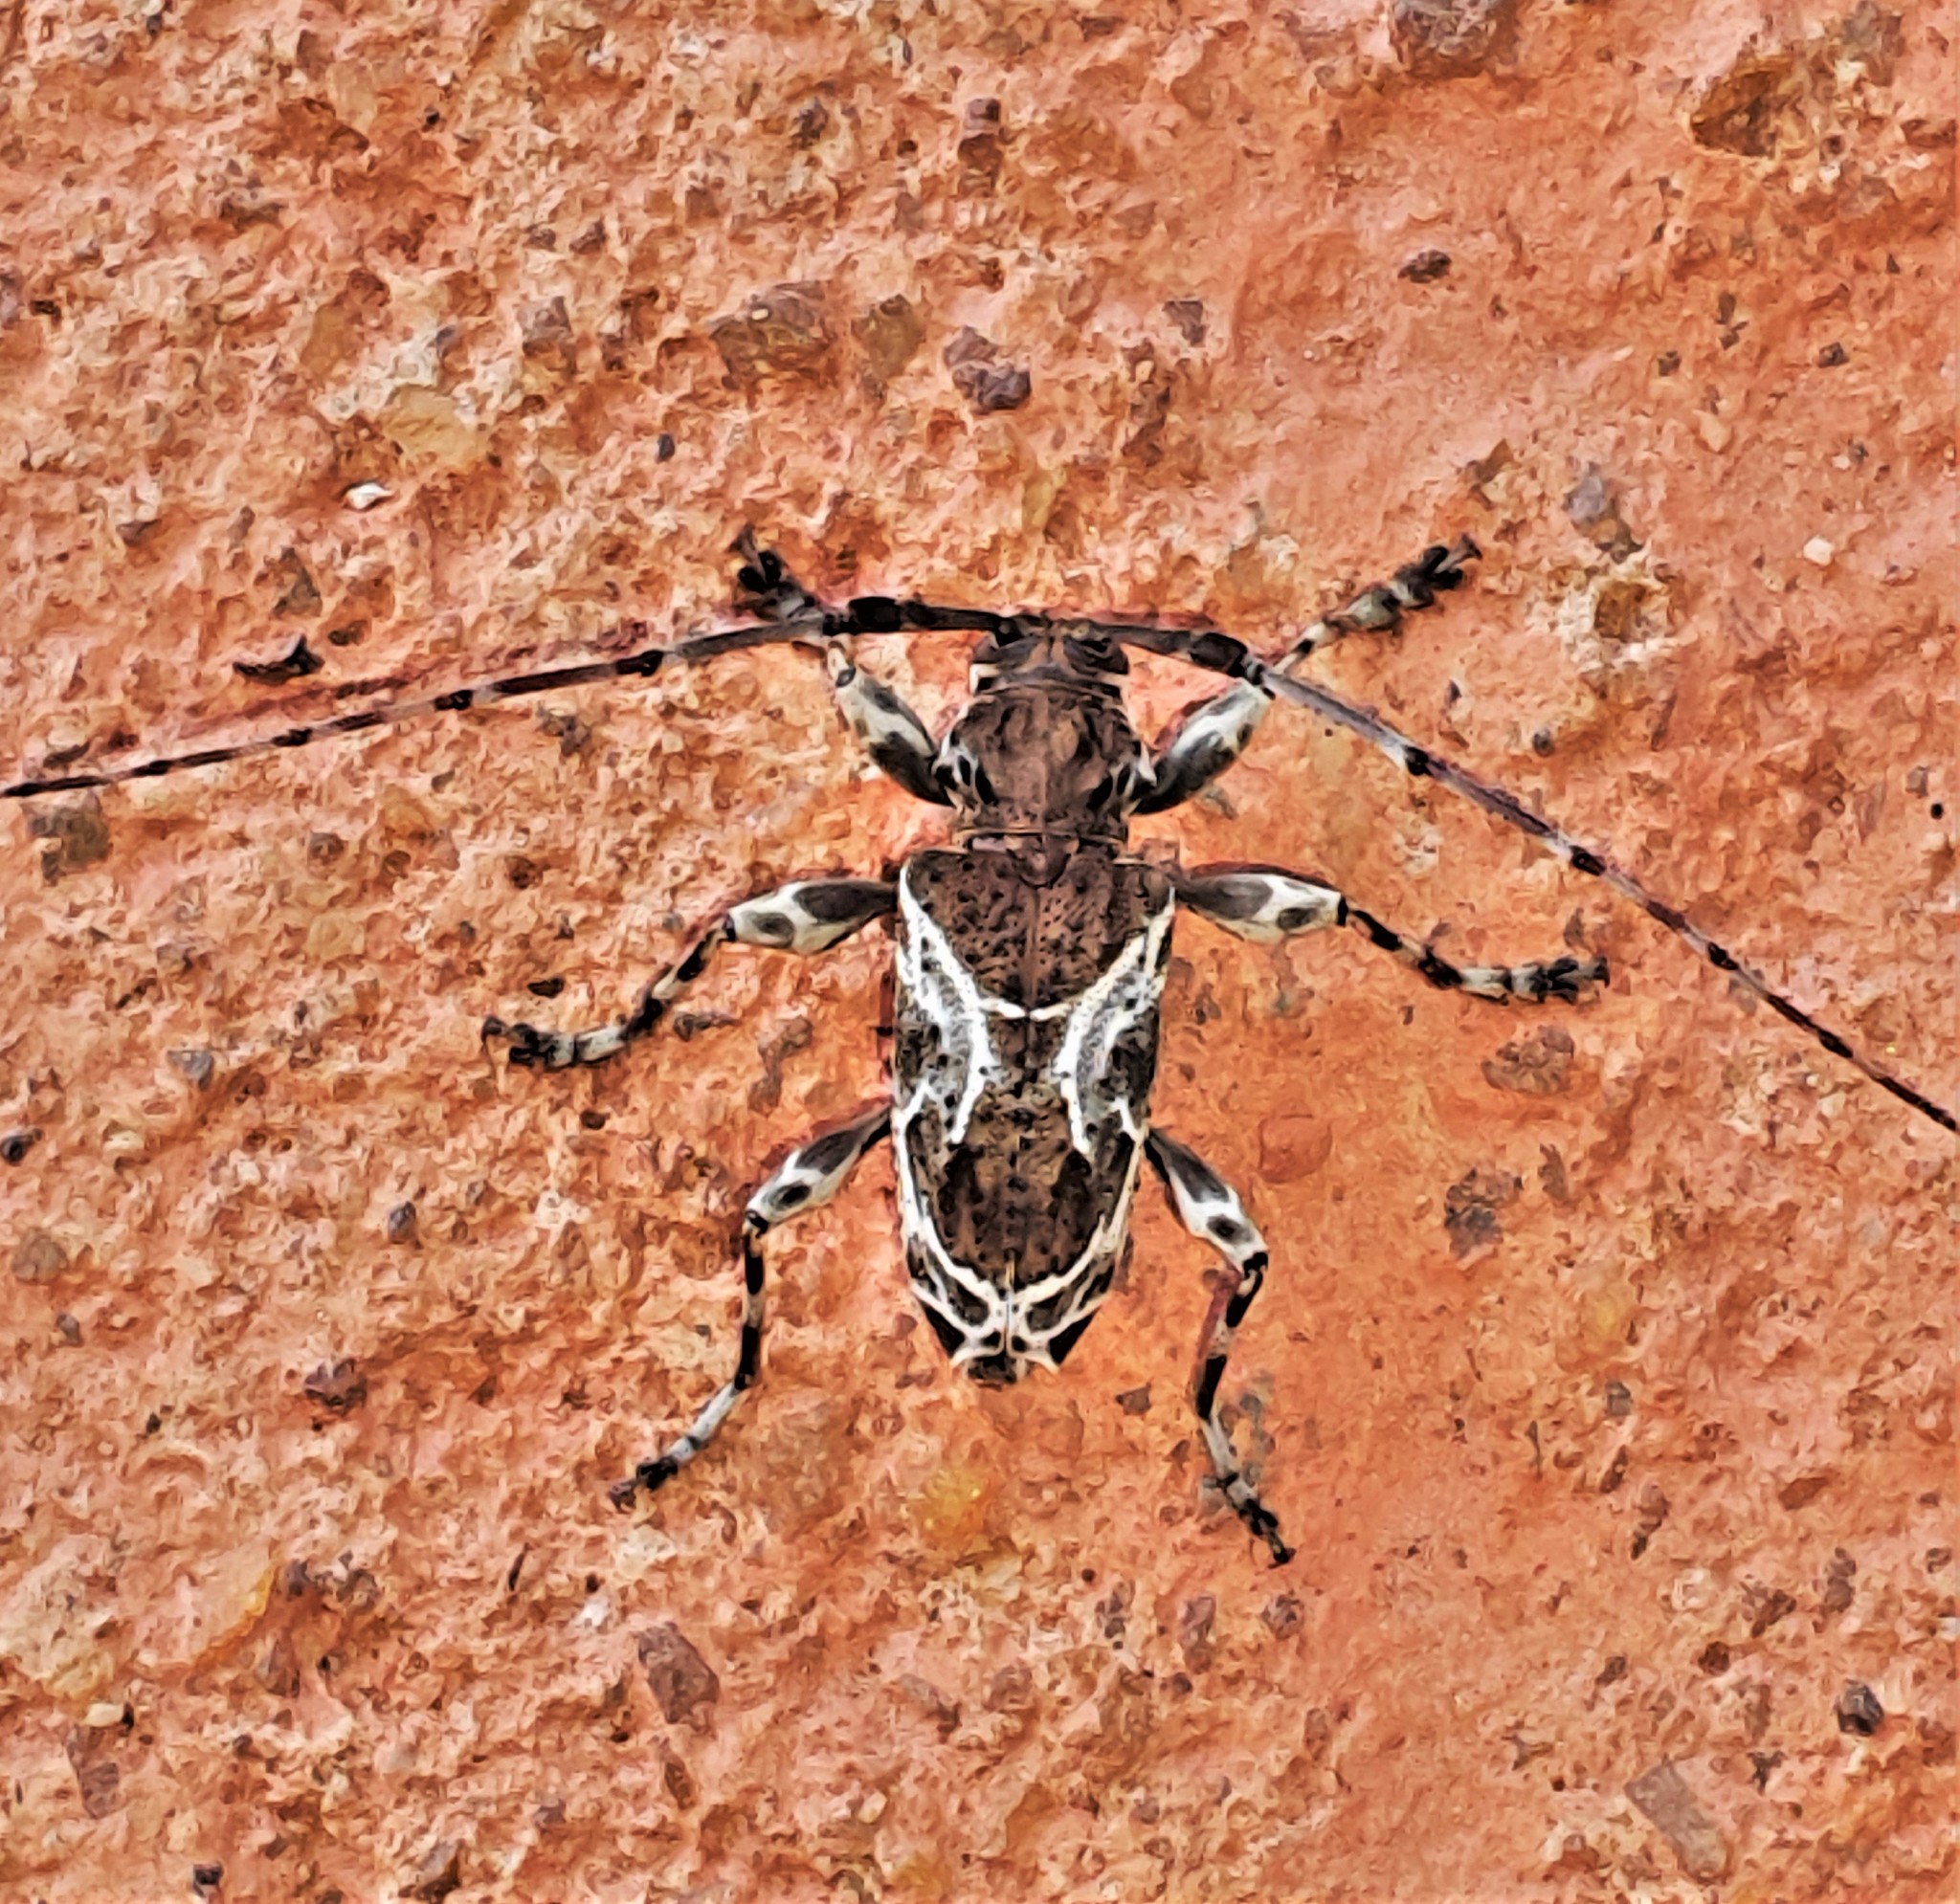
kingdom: Animalia
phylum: Arthropoda
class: Insecta
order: Coleoptera
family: Cerambycidae
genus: Xylergates
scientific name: Xylergates lacteus
